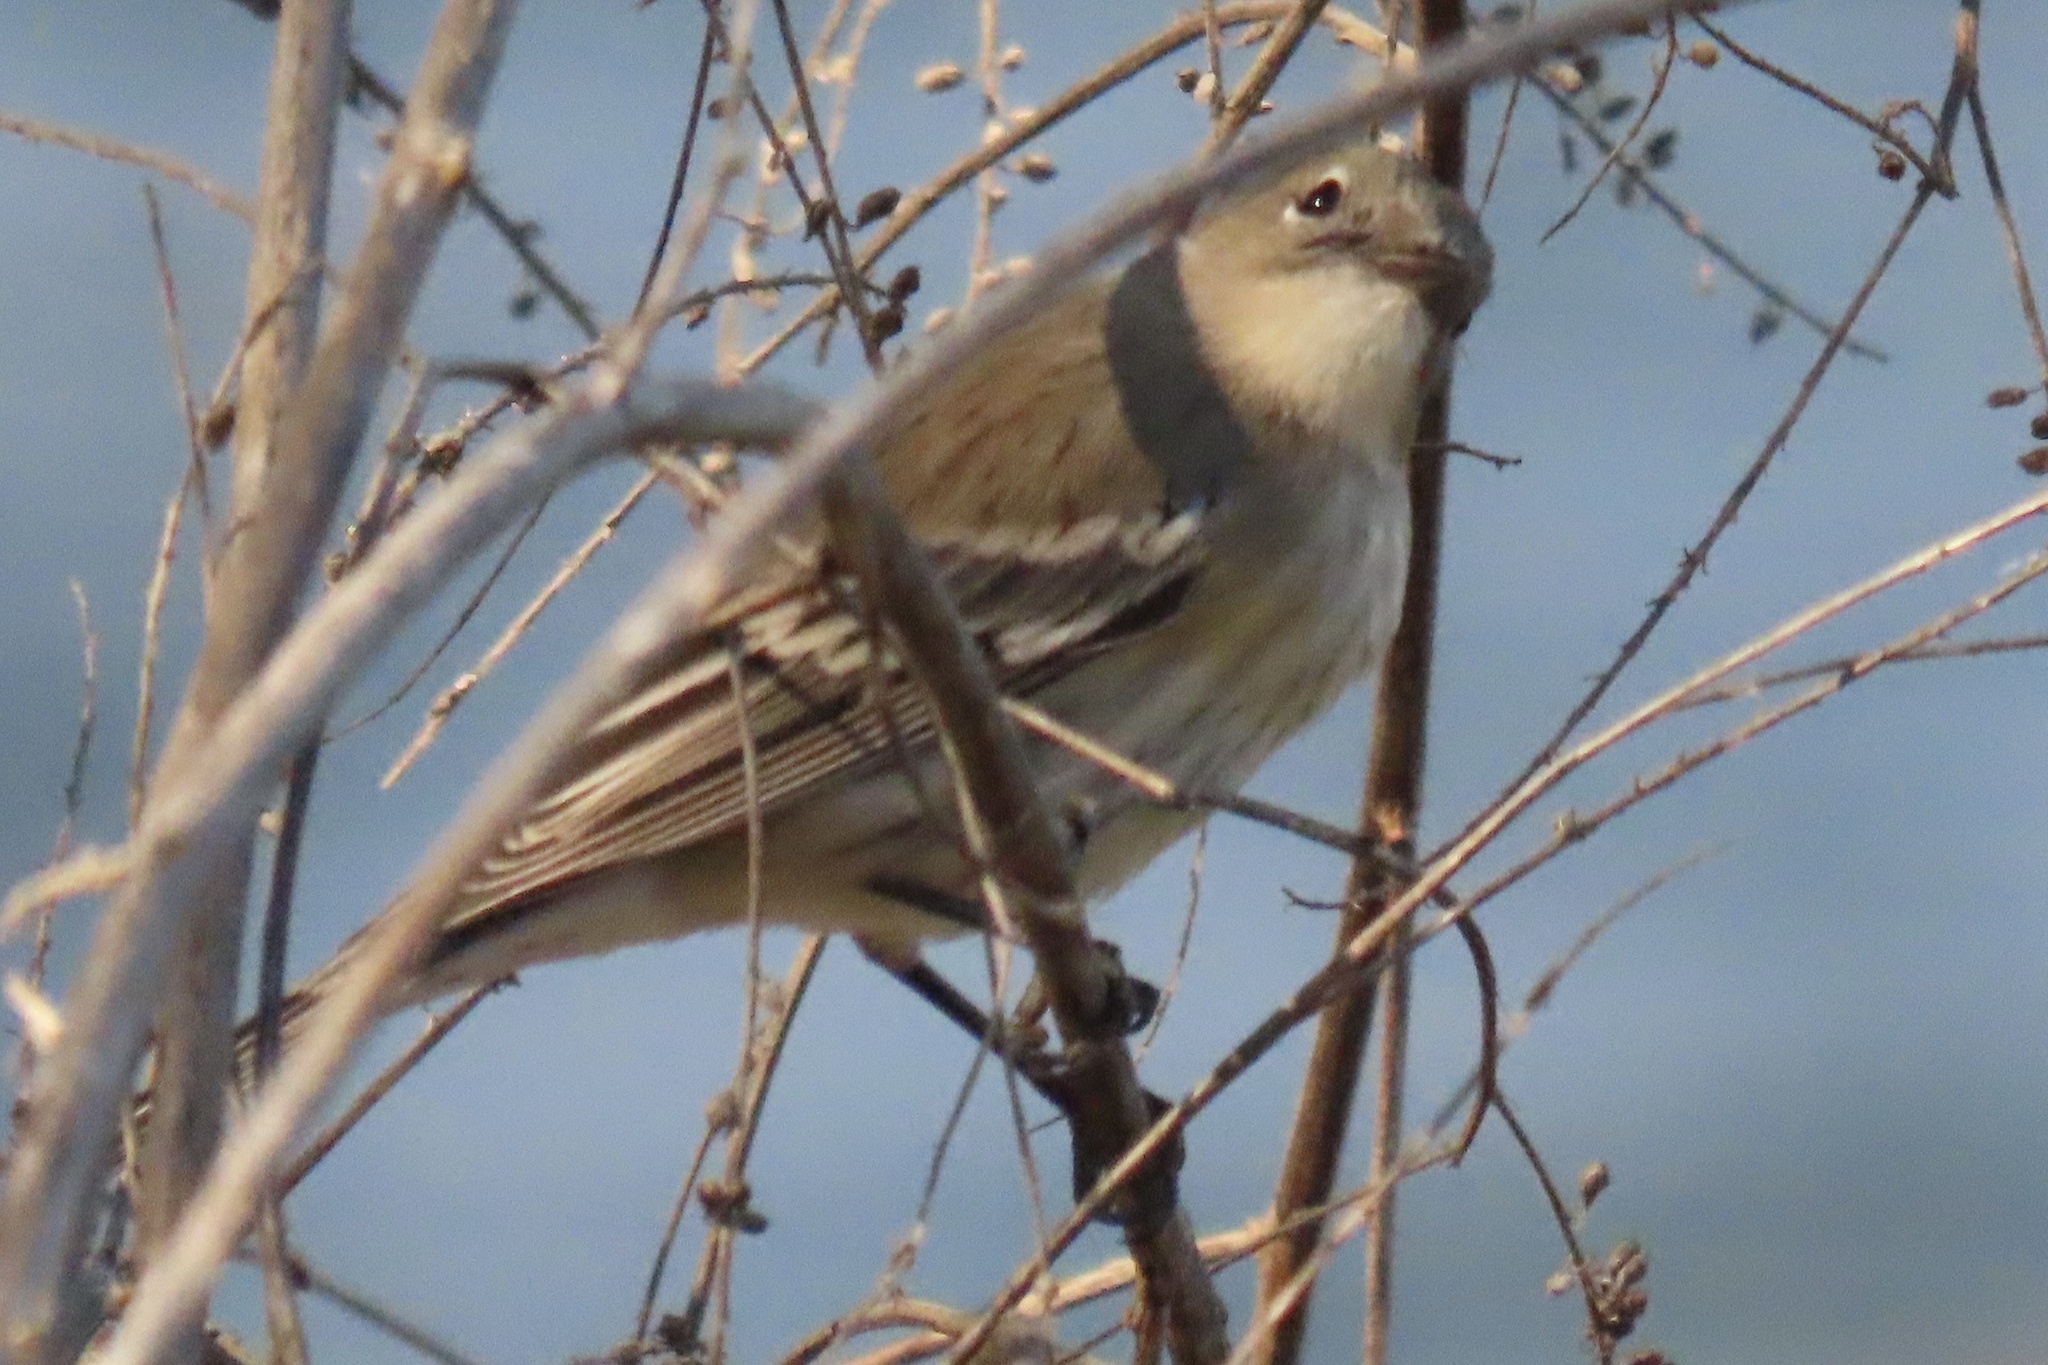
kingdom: Animalia
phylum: Chordata
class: Aves
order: Passeriformes
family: Parulidae
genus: Setophaga
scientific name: Setophaga coronata
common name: Myrtle warbler
